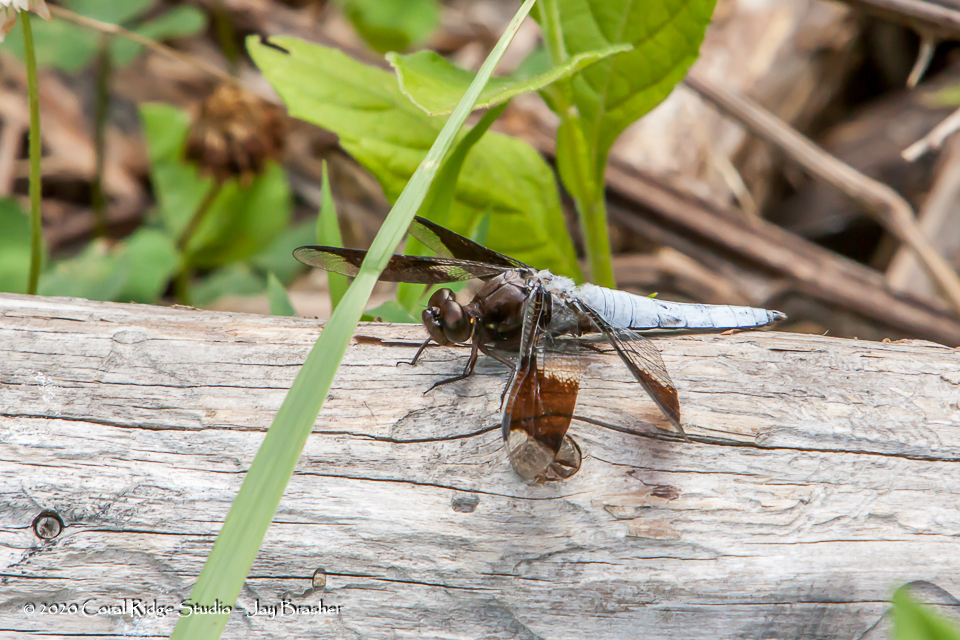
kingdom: Animalia
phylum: Arthropoda
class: Insecta
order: Odonata
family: Libellulidae
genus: Plathemis
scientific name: Plathemis lydia
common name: Common whitetail
